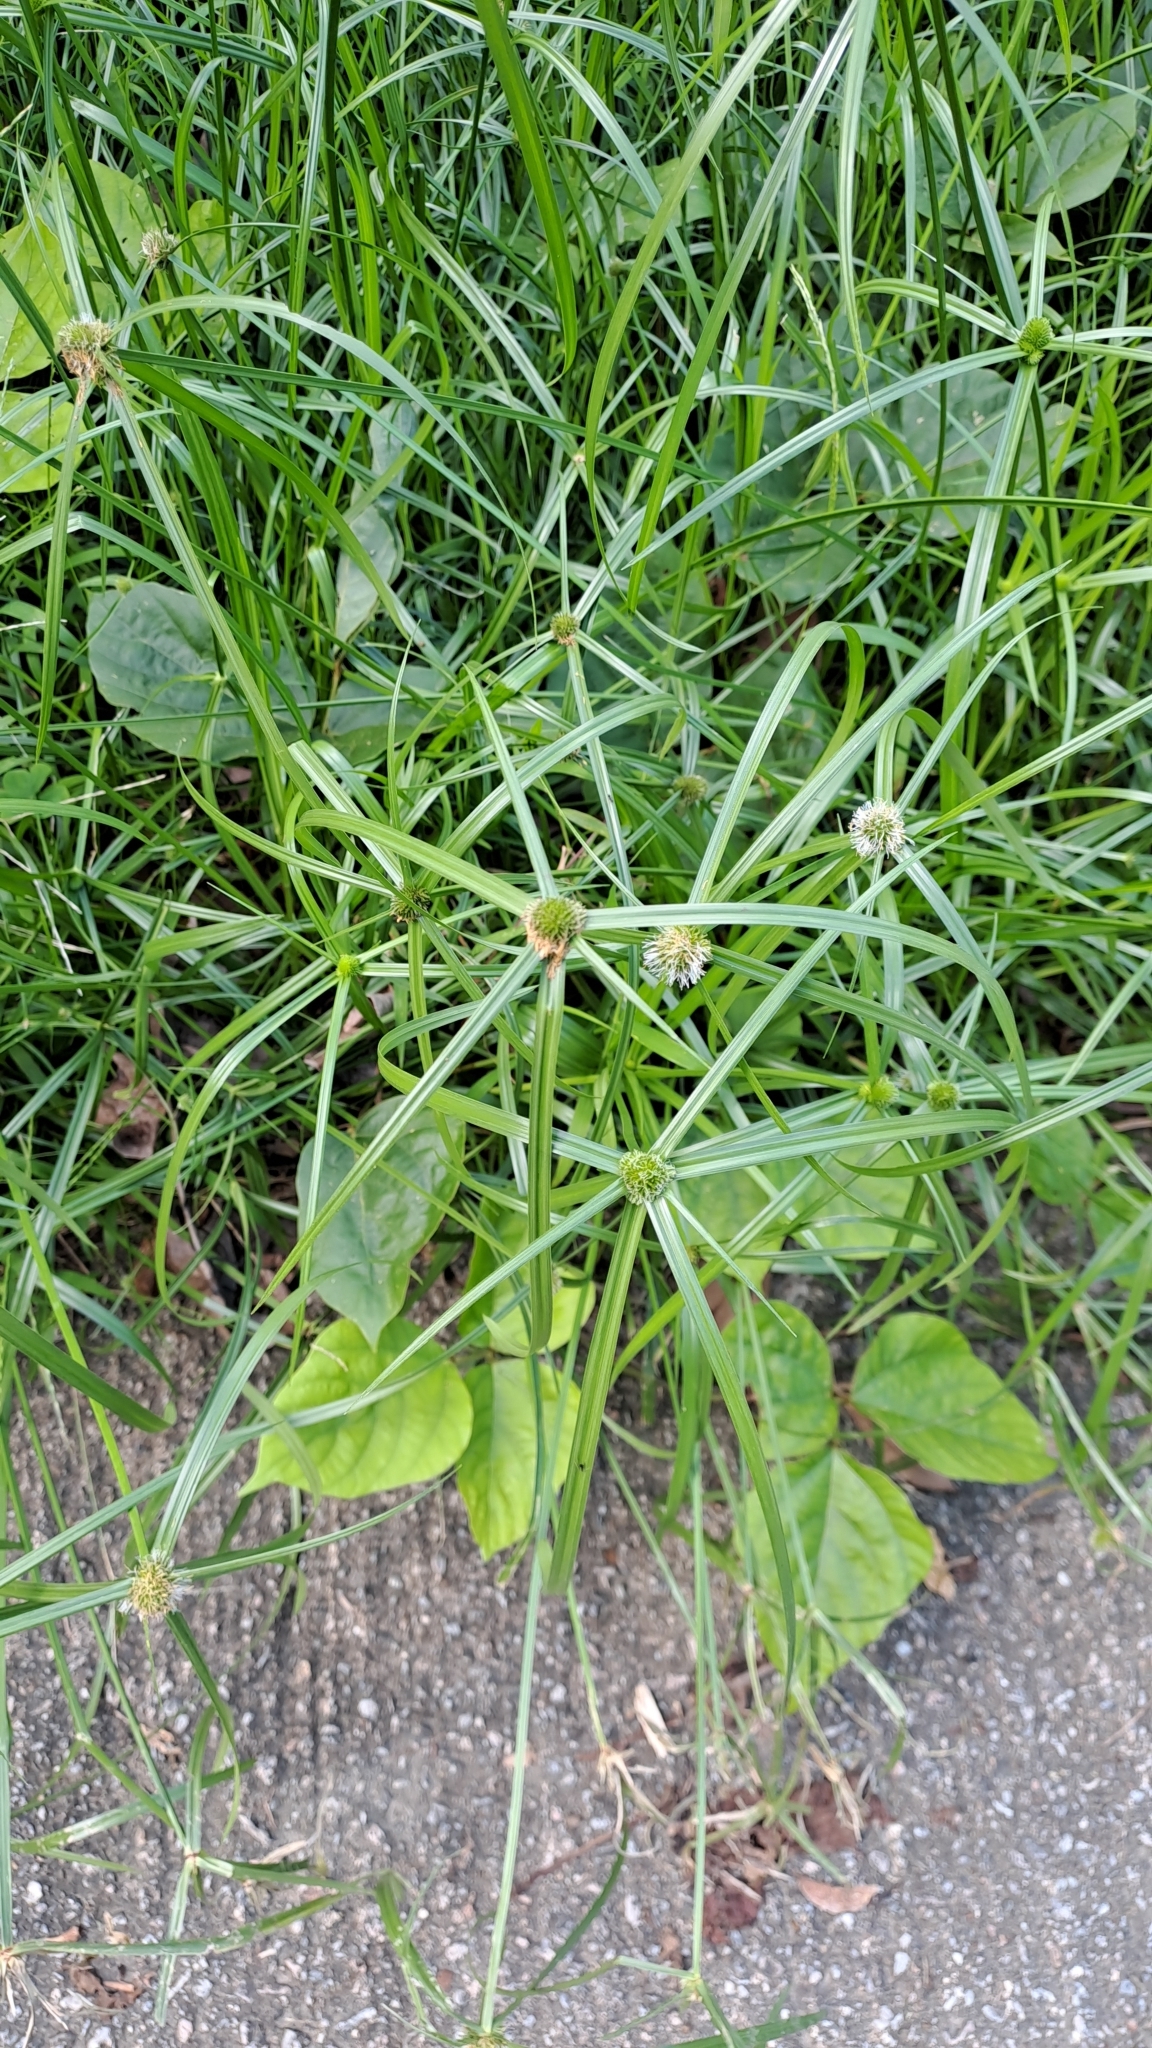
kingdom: Plantae
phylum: Tracheophyta
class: Liliopsida
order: Poales
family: Cyperaceae
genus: Cyperus
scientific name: Cyperus aromaticus
